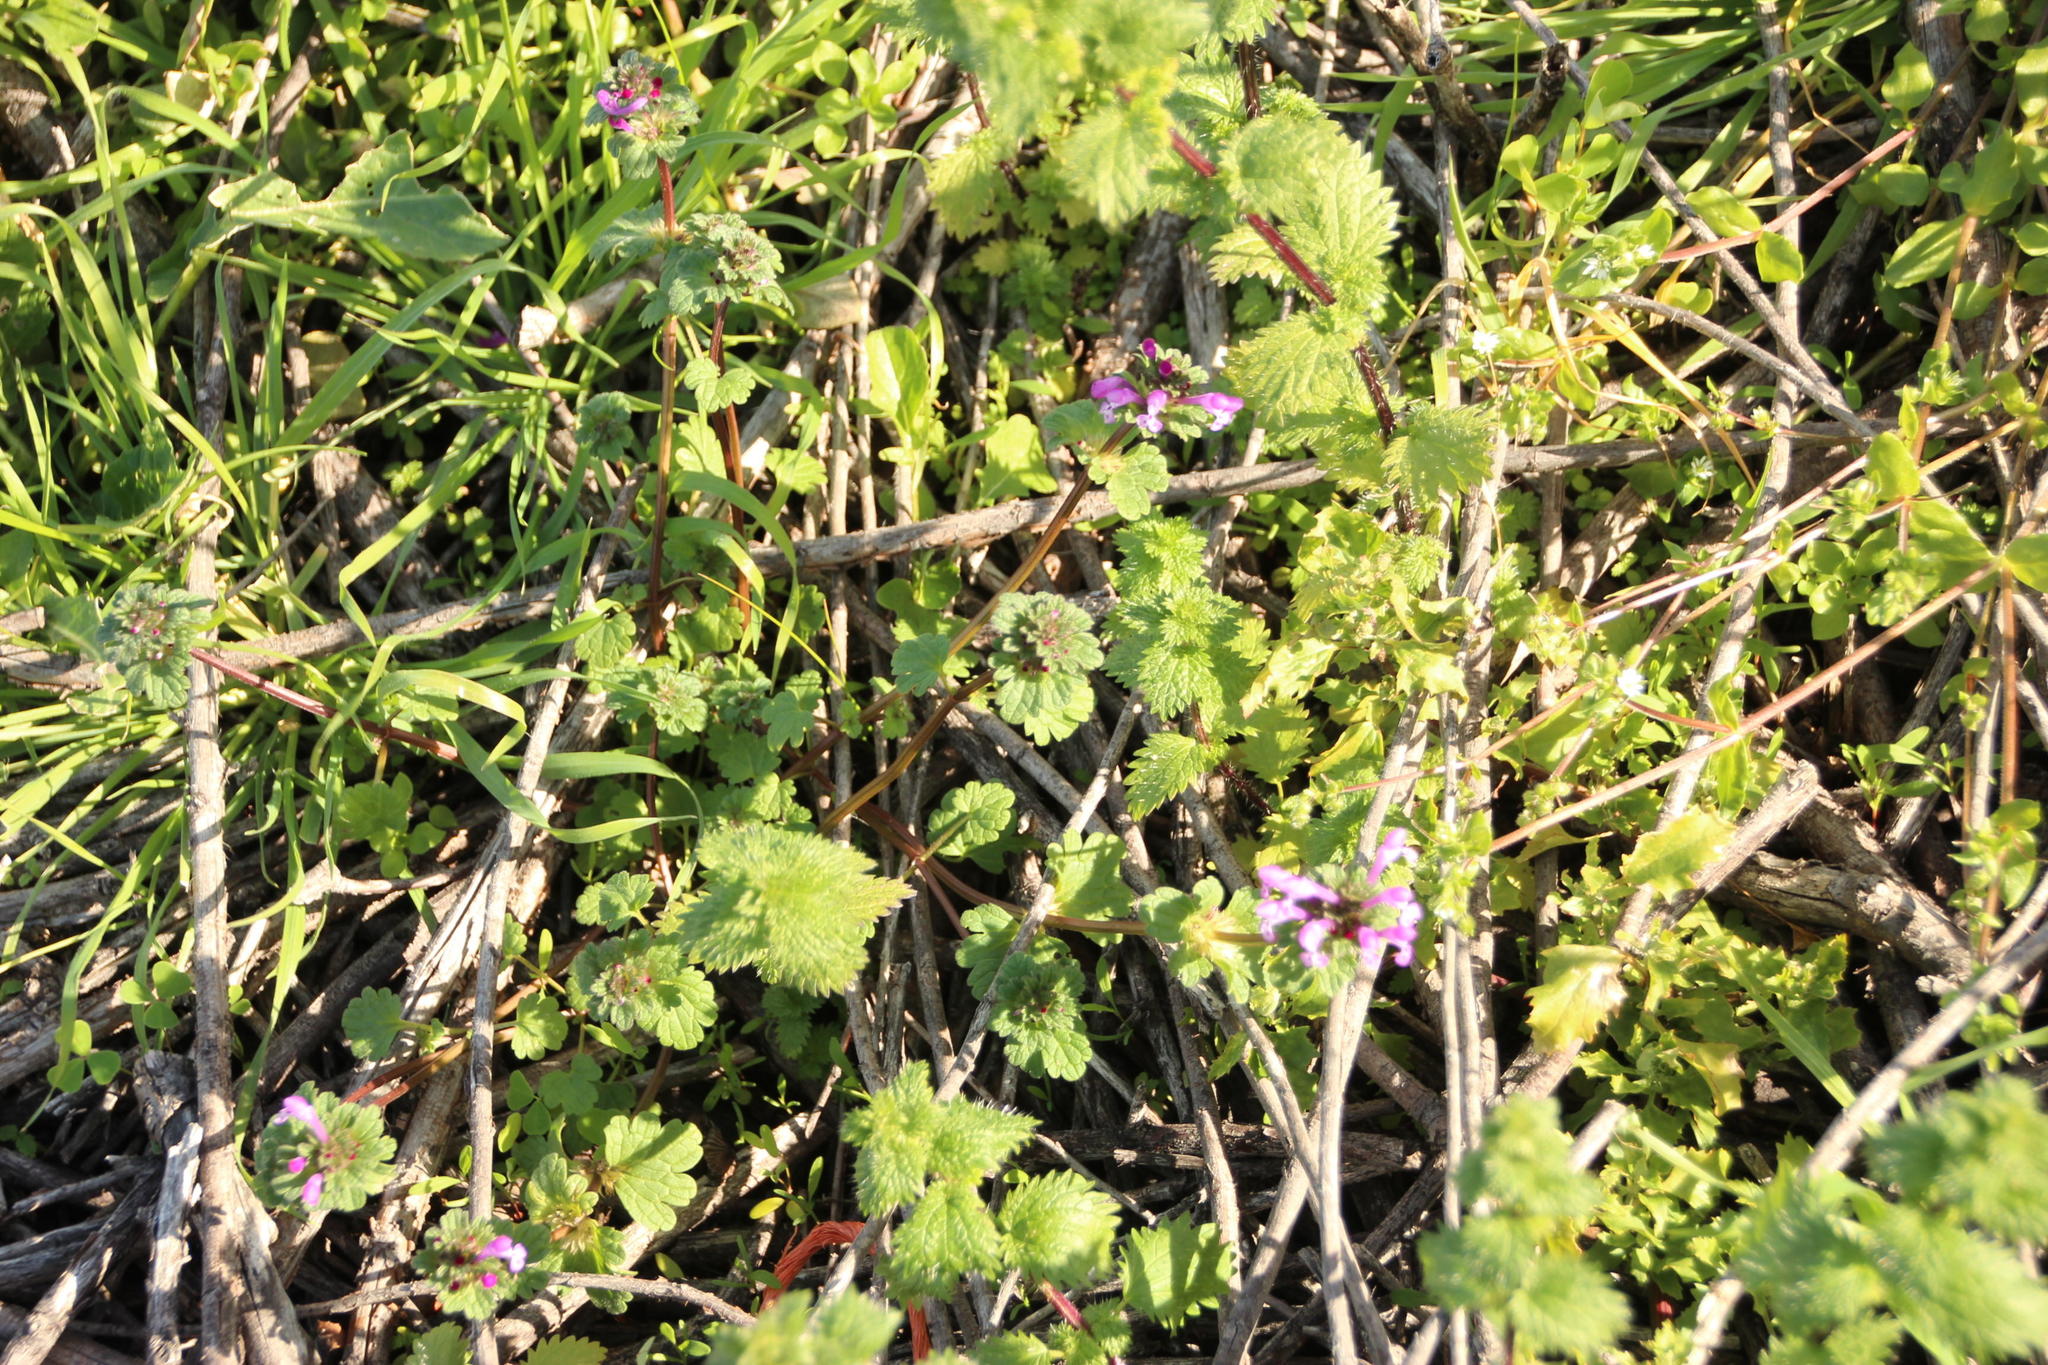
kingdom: Plantae
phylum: Tracheophyta
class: Magnoliopsida
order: Lamiales
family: Lamiaceae
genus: Lamium
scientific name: Lamium amplexicaule
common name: Henbit dead-nettle
